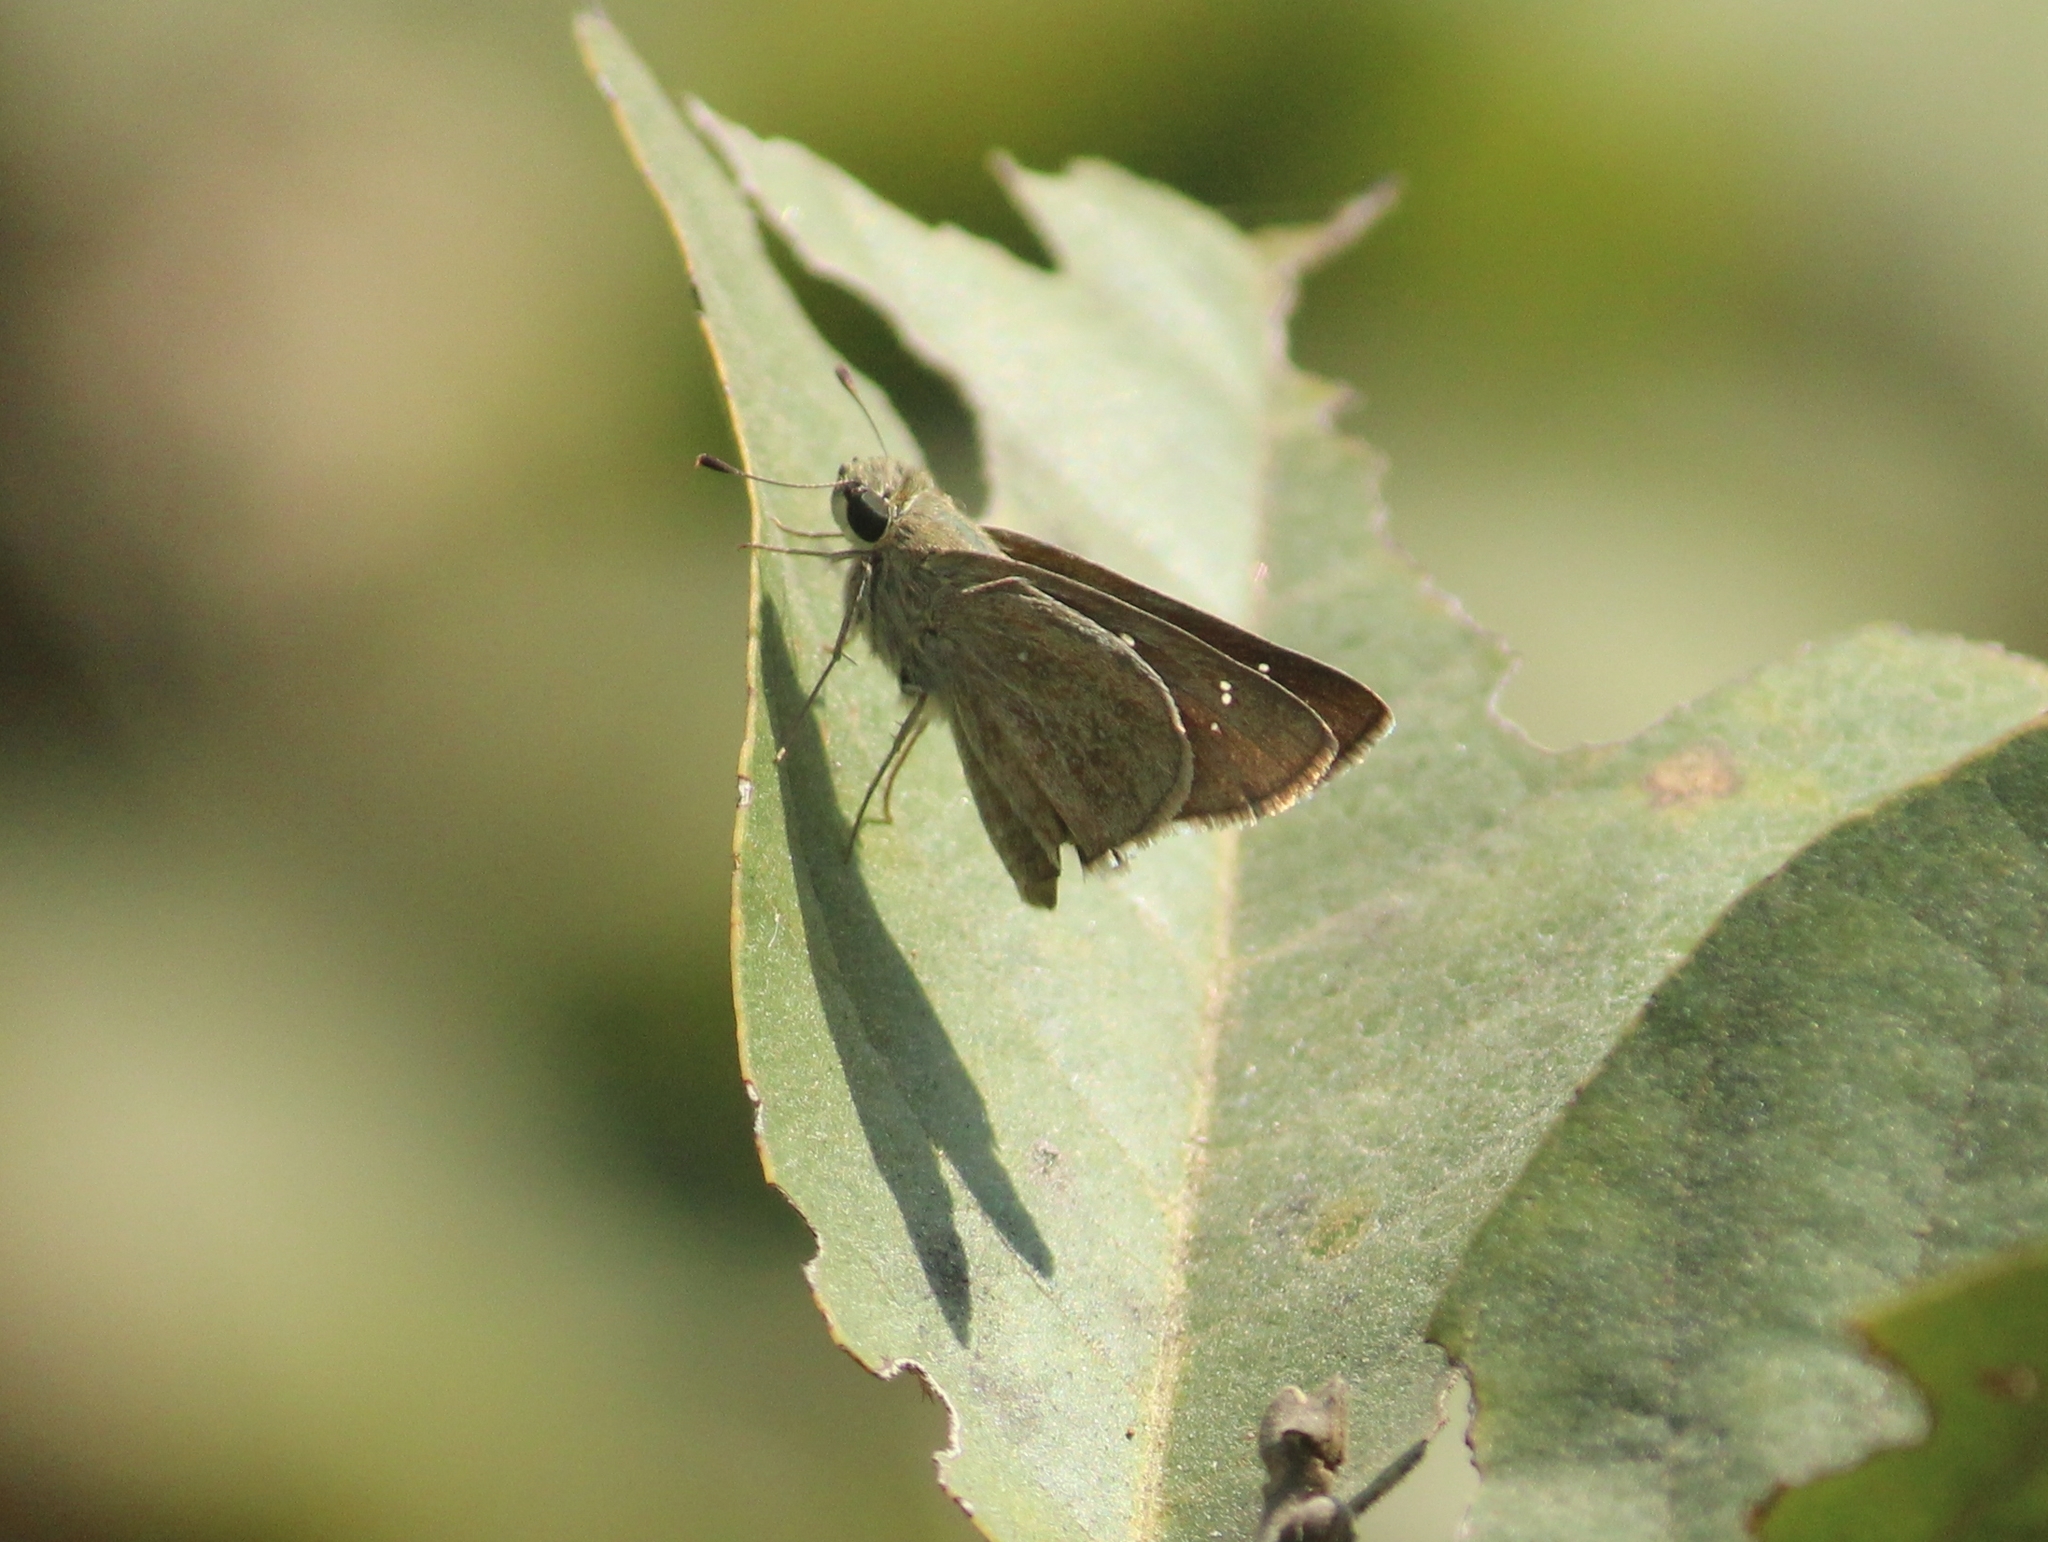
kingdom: Animalia
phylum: Arthropoda
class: Insecta
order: Lepidoptera
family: Hesperiidae
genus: Pelopidas
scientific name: Pelopidas mathias
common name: Black-branded swift
